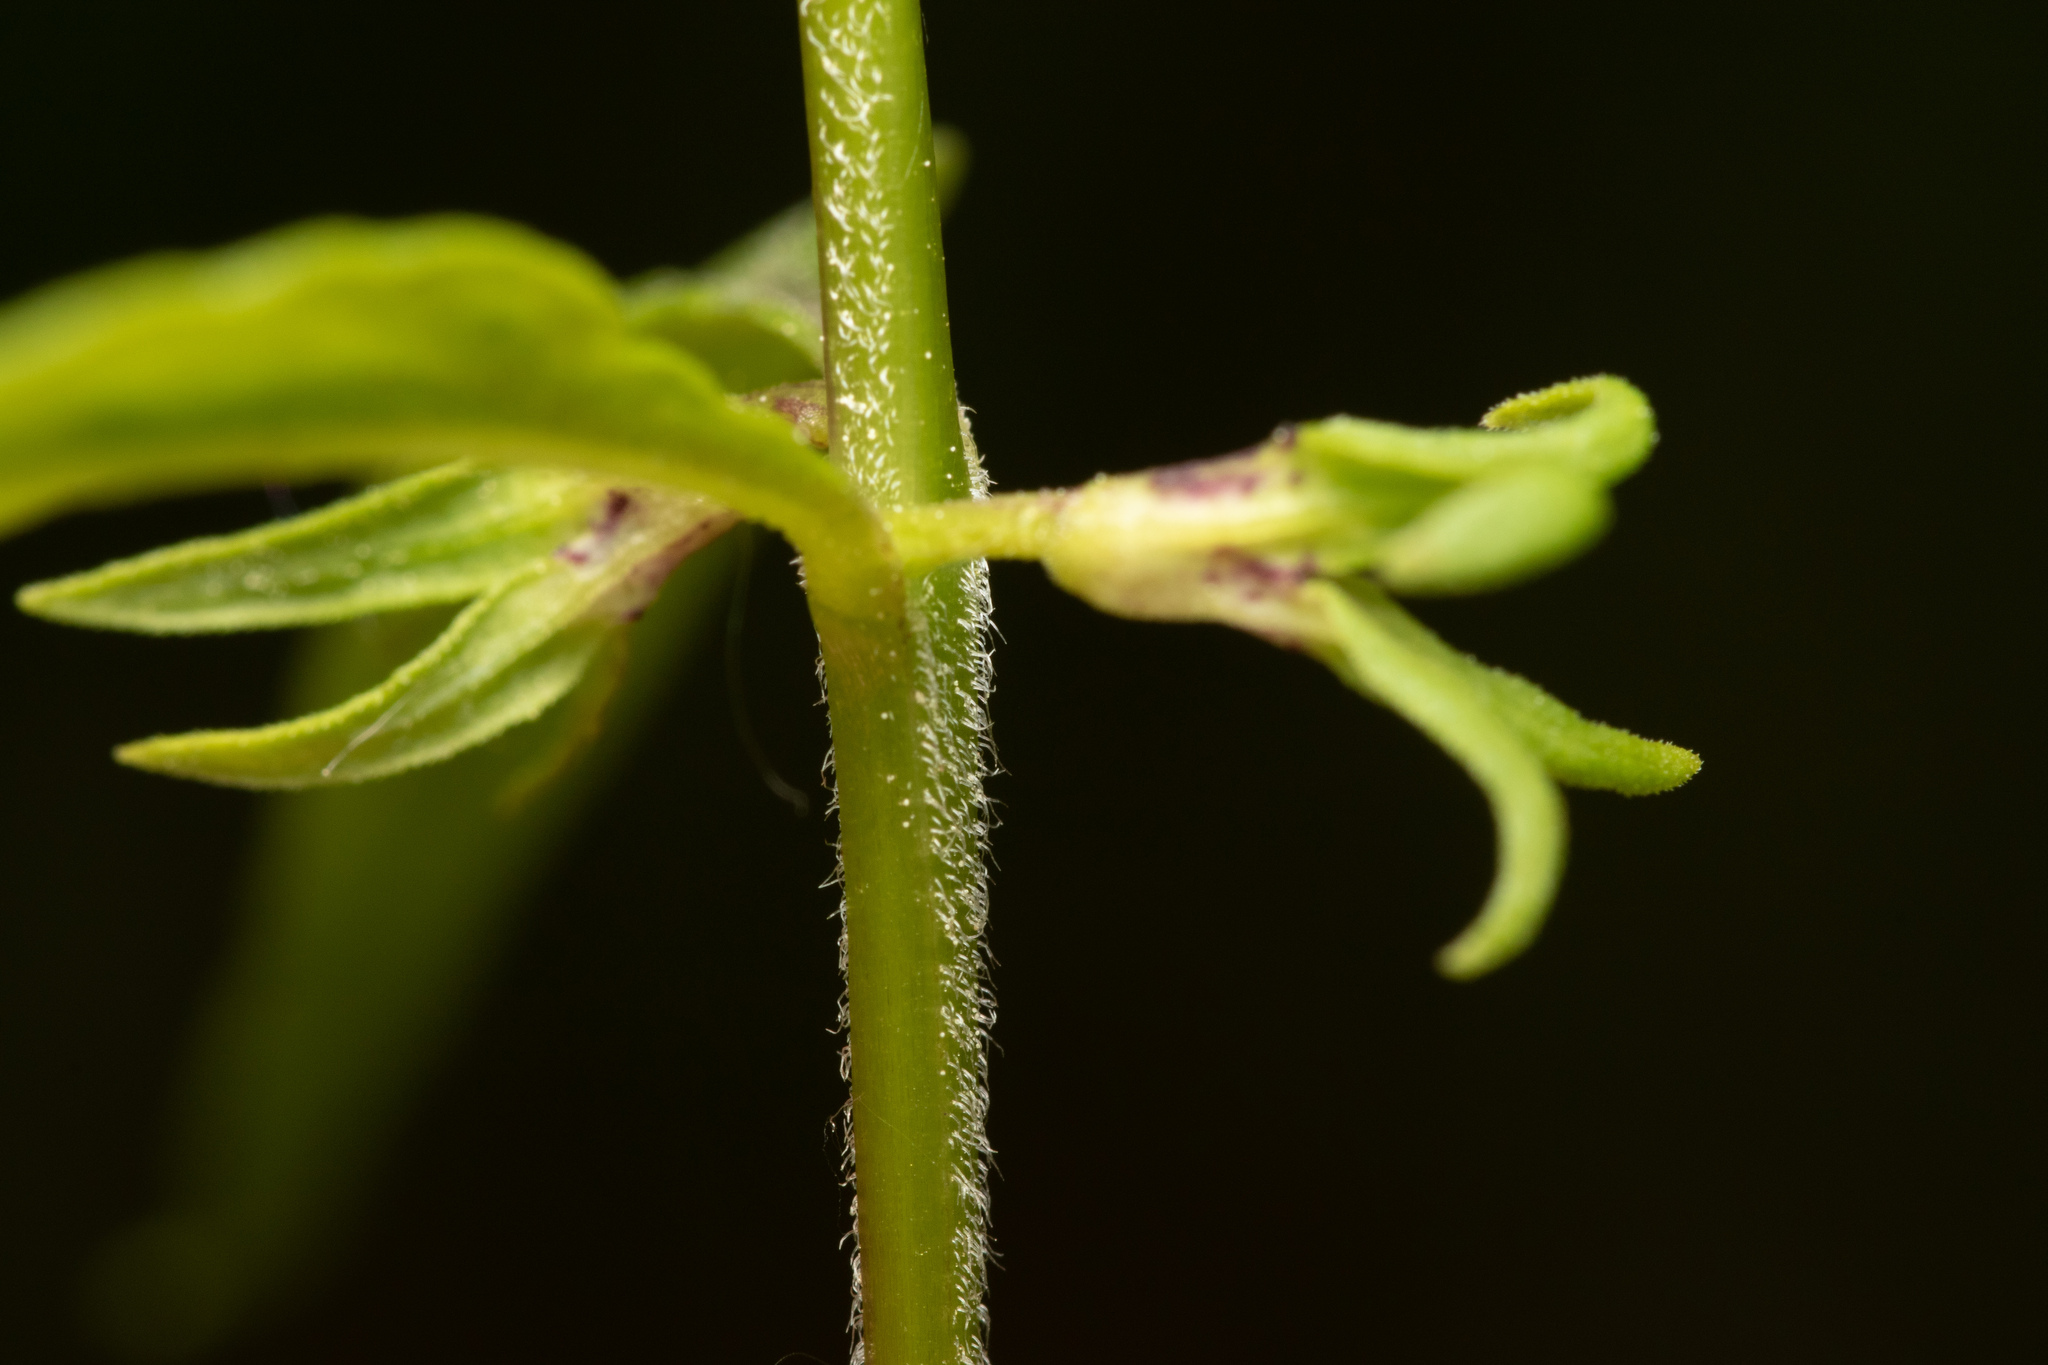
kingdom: Plantae
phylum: Tracheophyta
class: Magnoliopsida
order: Lamiales
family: Orobanchaceae
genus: Melampyrum
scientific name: Melampyrum sylvaticum
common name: Small cow-wheat
